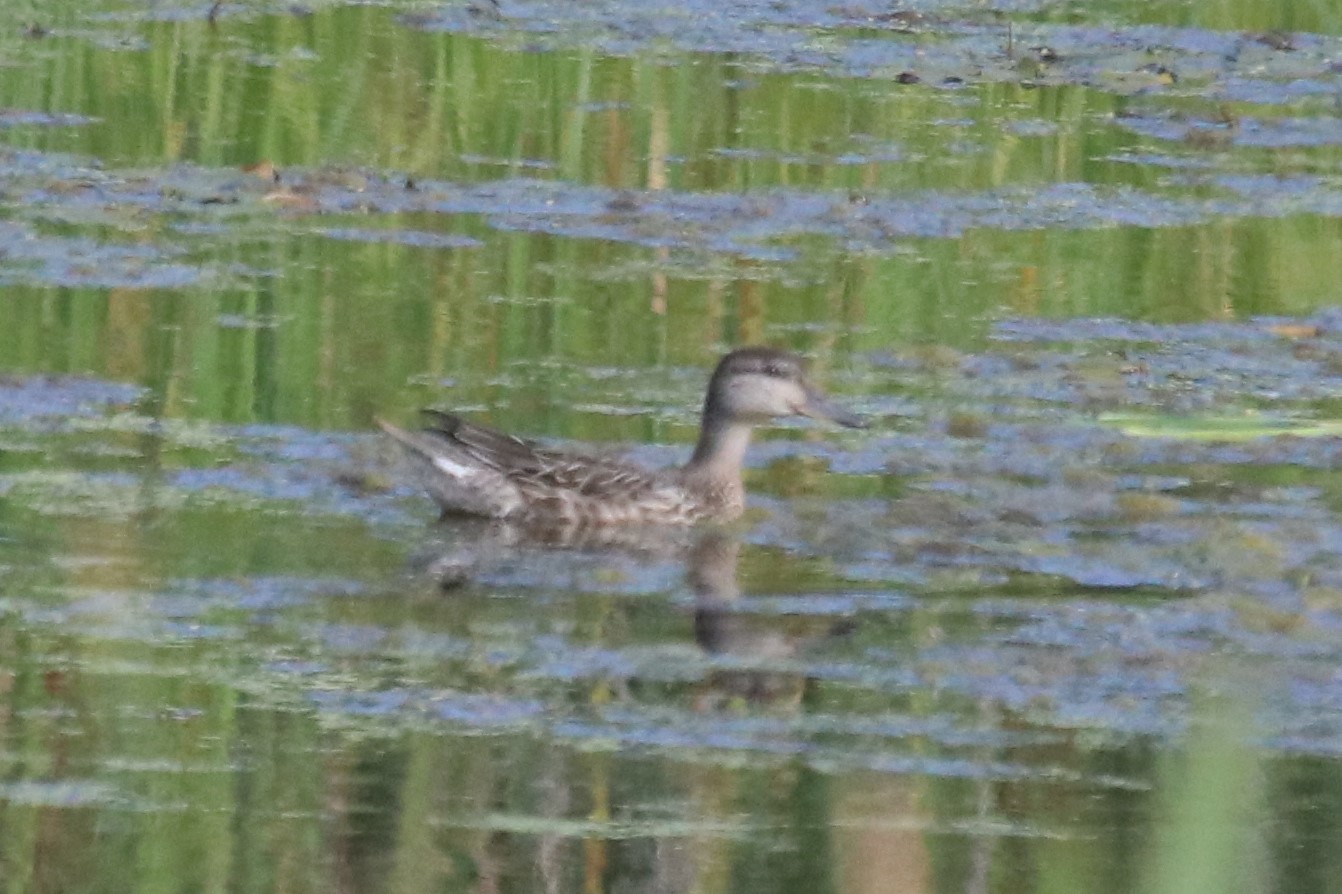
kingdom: Animalia
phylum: Chordata
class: Aves
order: Anseriformes
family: Anatidae
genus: Anas
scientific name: Anas crecca
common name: Eurasian teal
